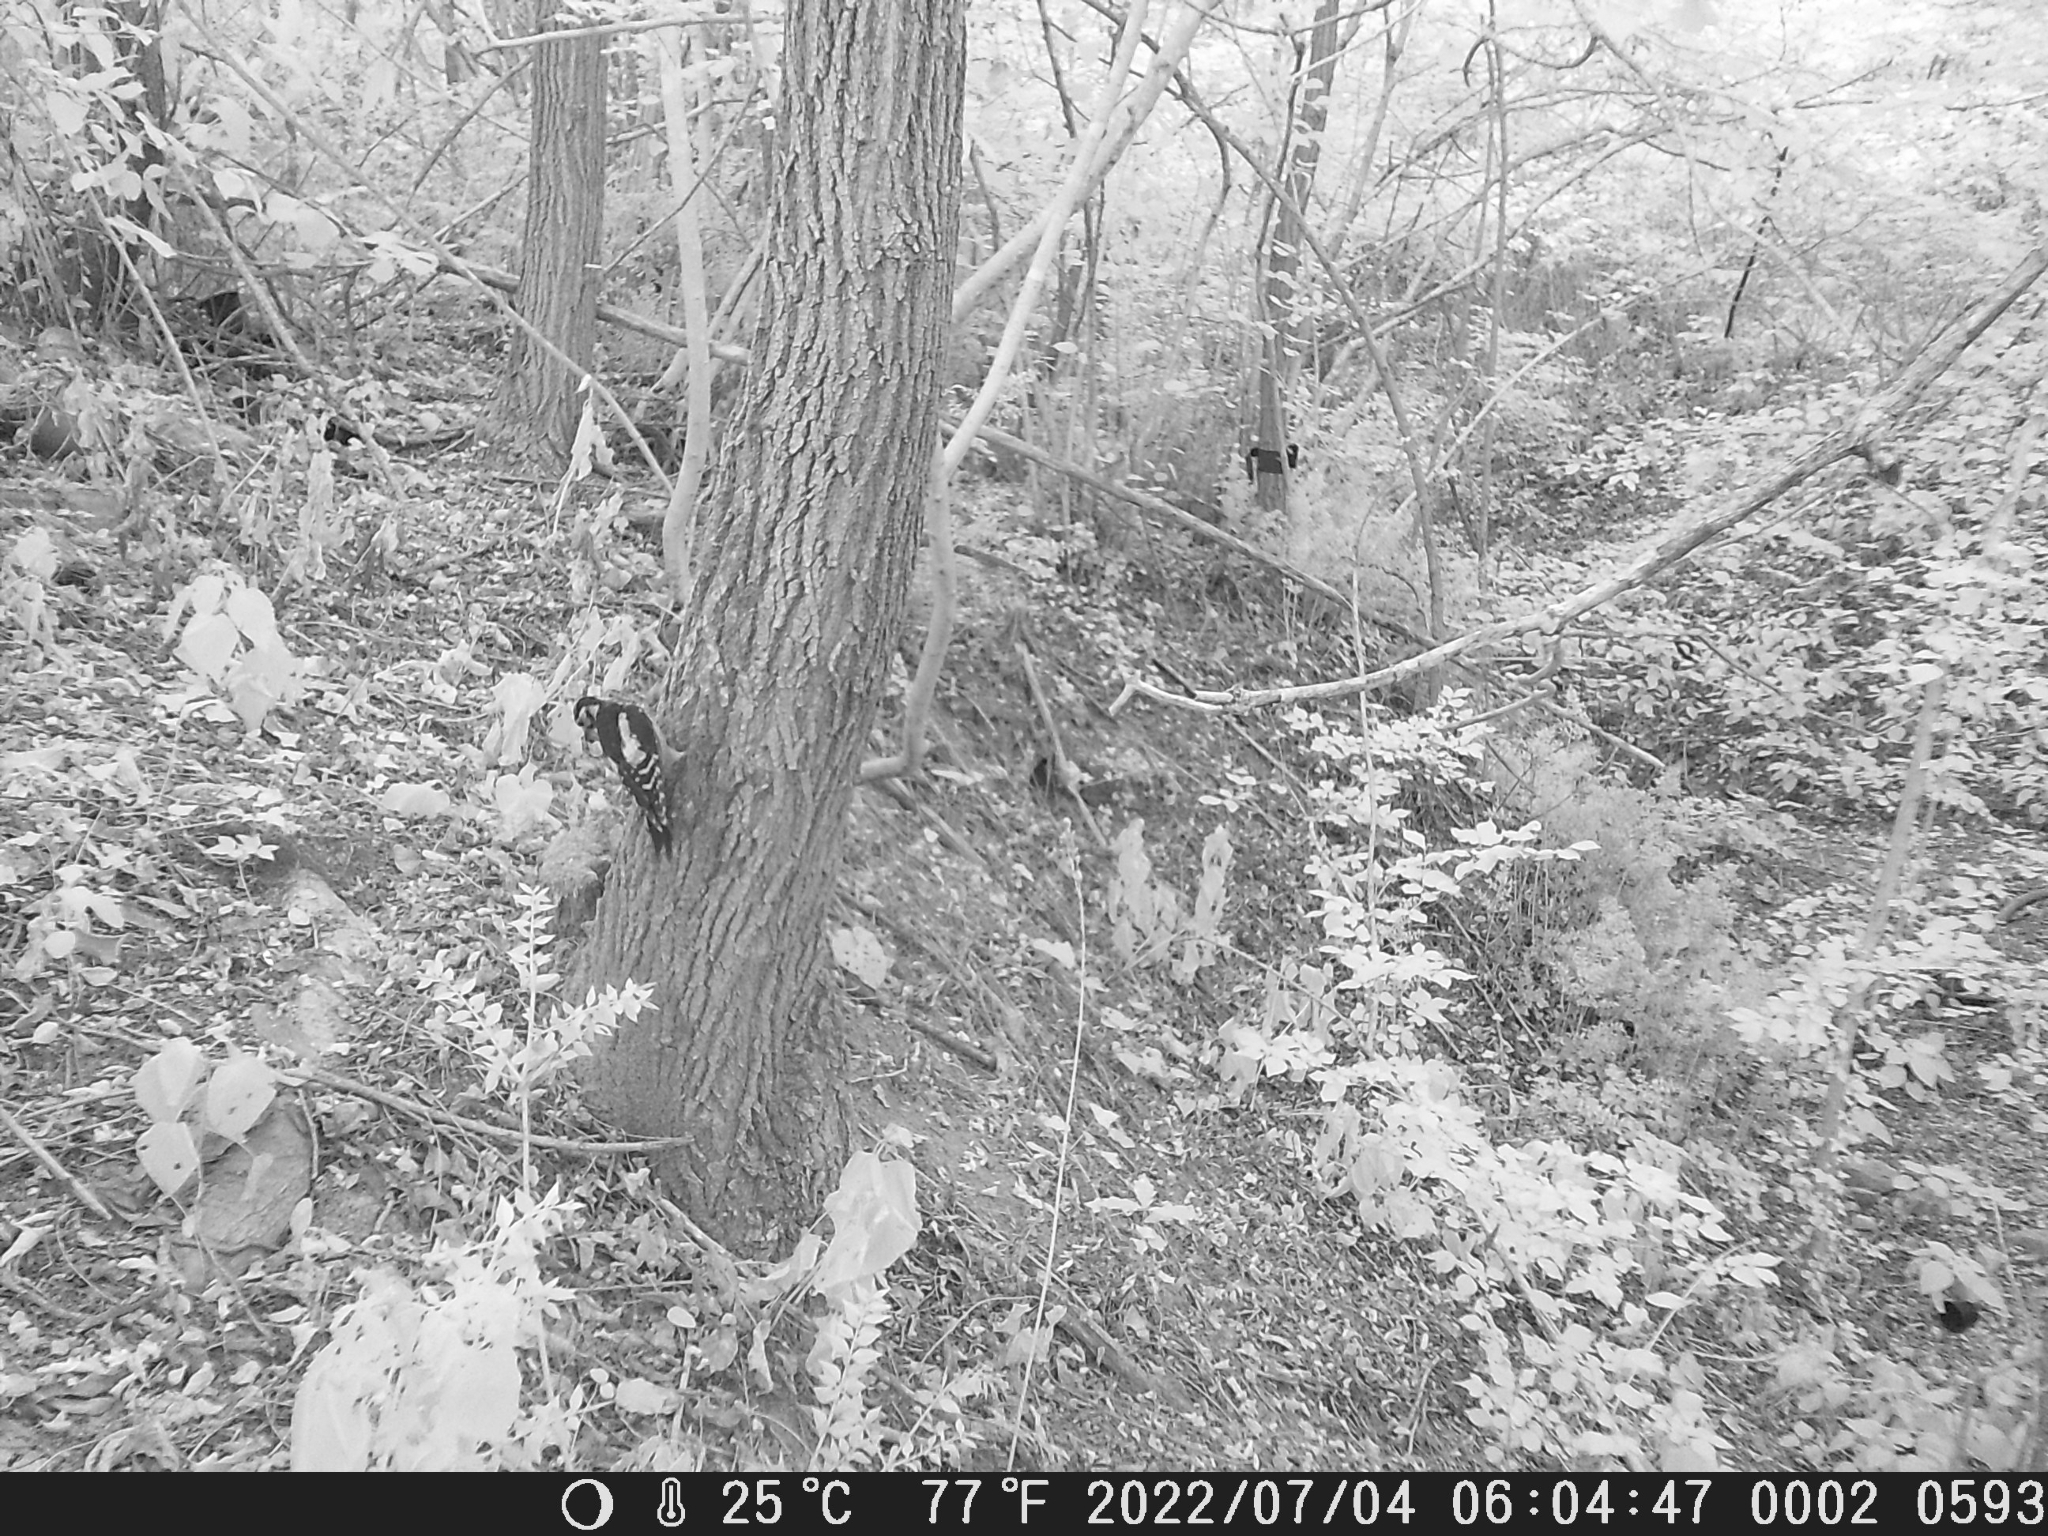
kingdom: Animalia
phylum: Chordata
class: Aves
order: Piciformes
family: Picidae
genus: Dendrocopos
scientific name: Dendrocopos major
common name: Great spotted woodpecker
